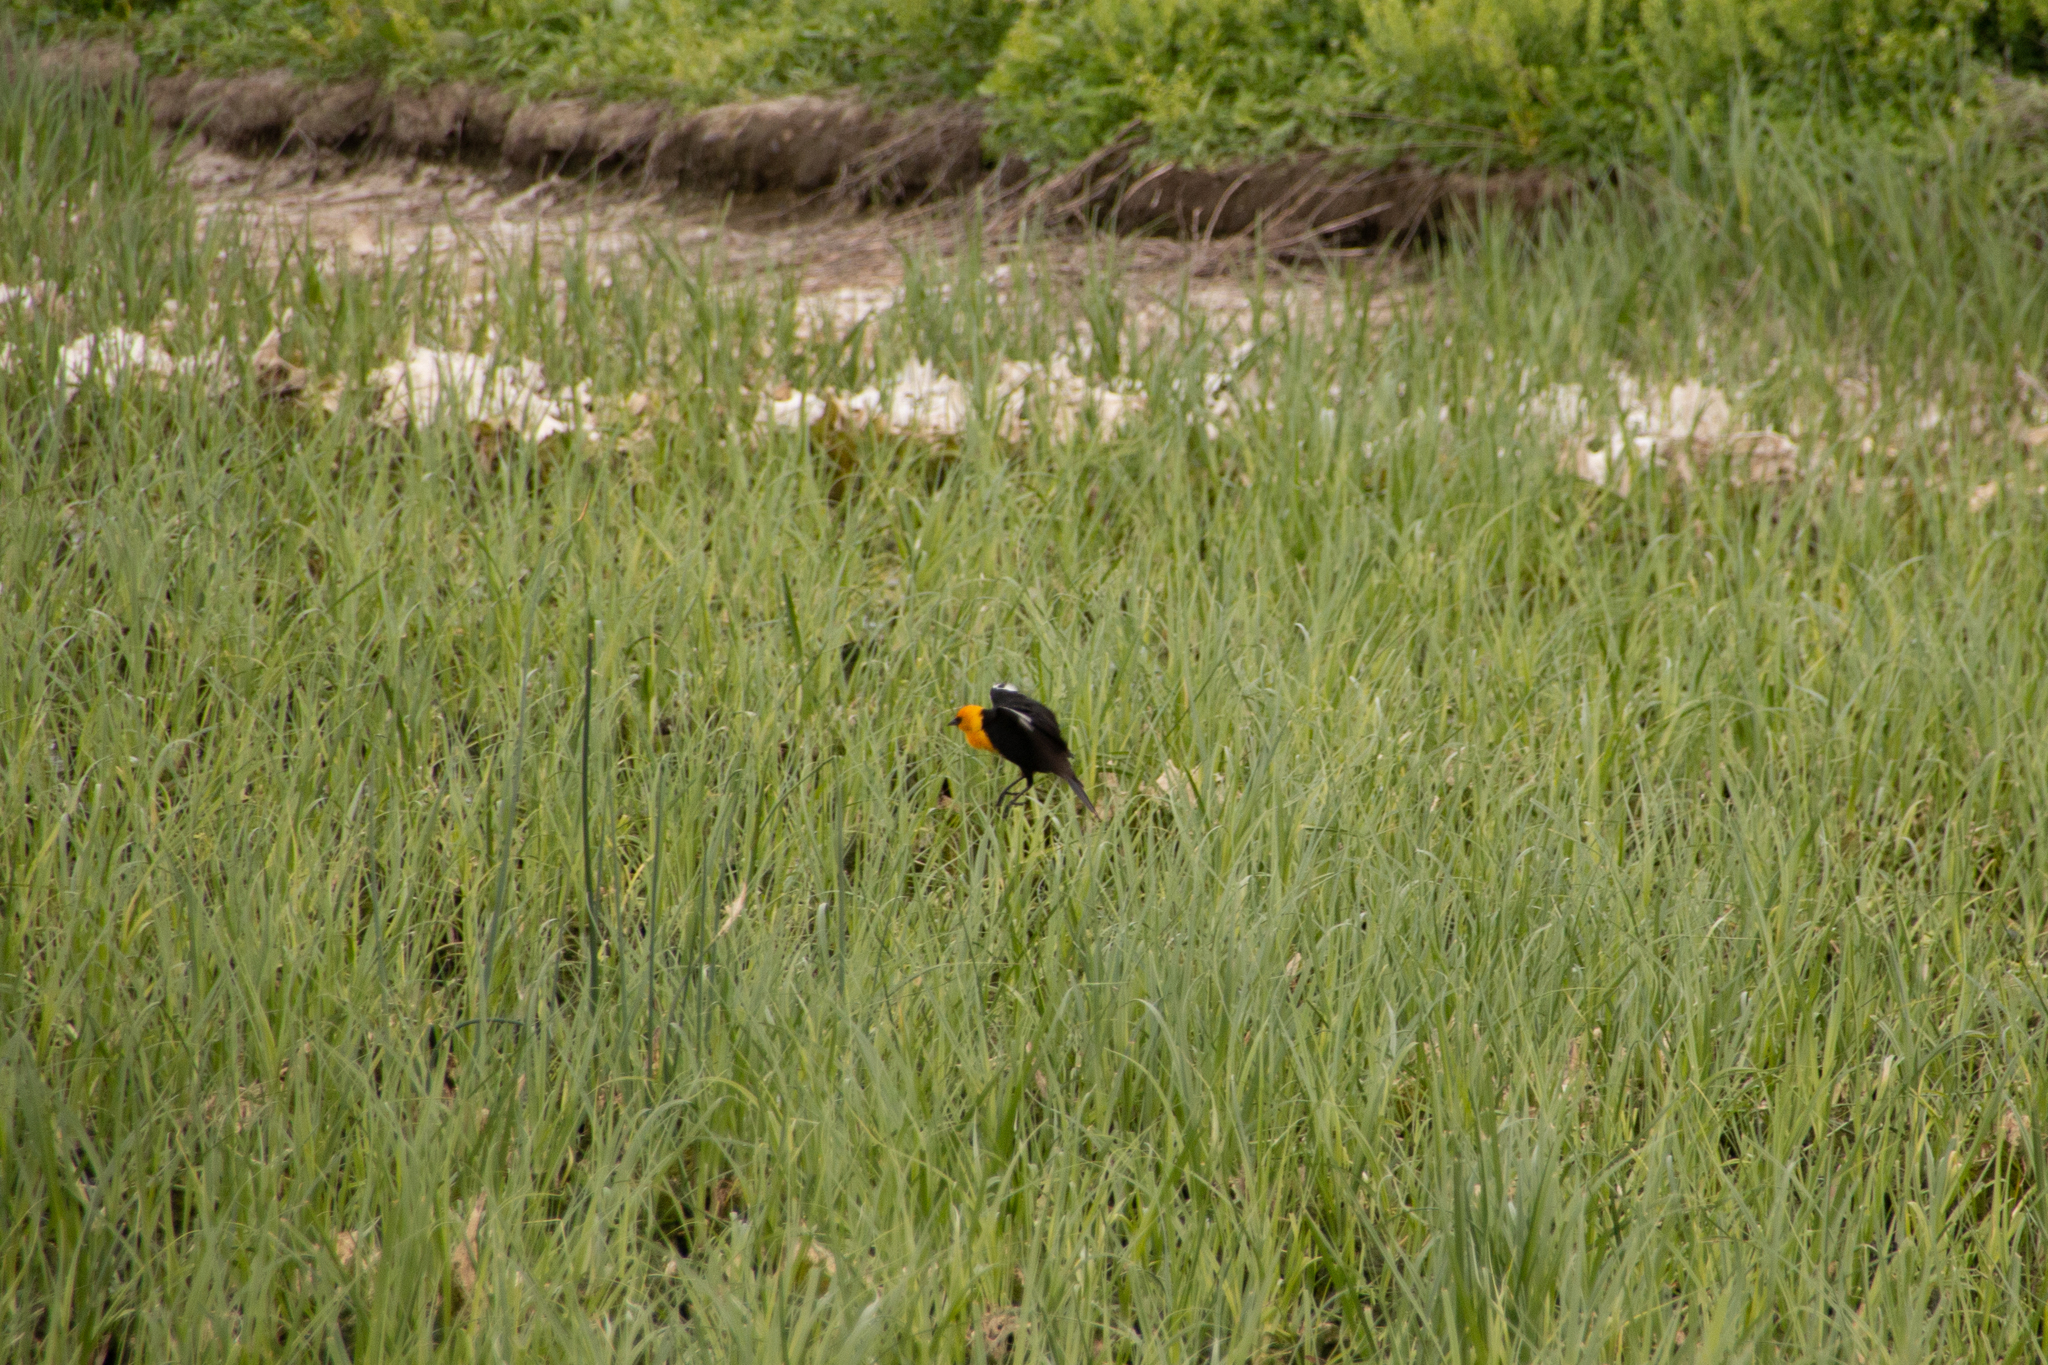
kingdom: Animalia
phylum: Chordata
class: Aves
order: Passeriformes
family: Icteridae
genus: Xanthocephalus
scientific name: Xanthocephalus xanthocephalus
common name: Yellow-headed blackbird
